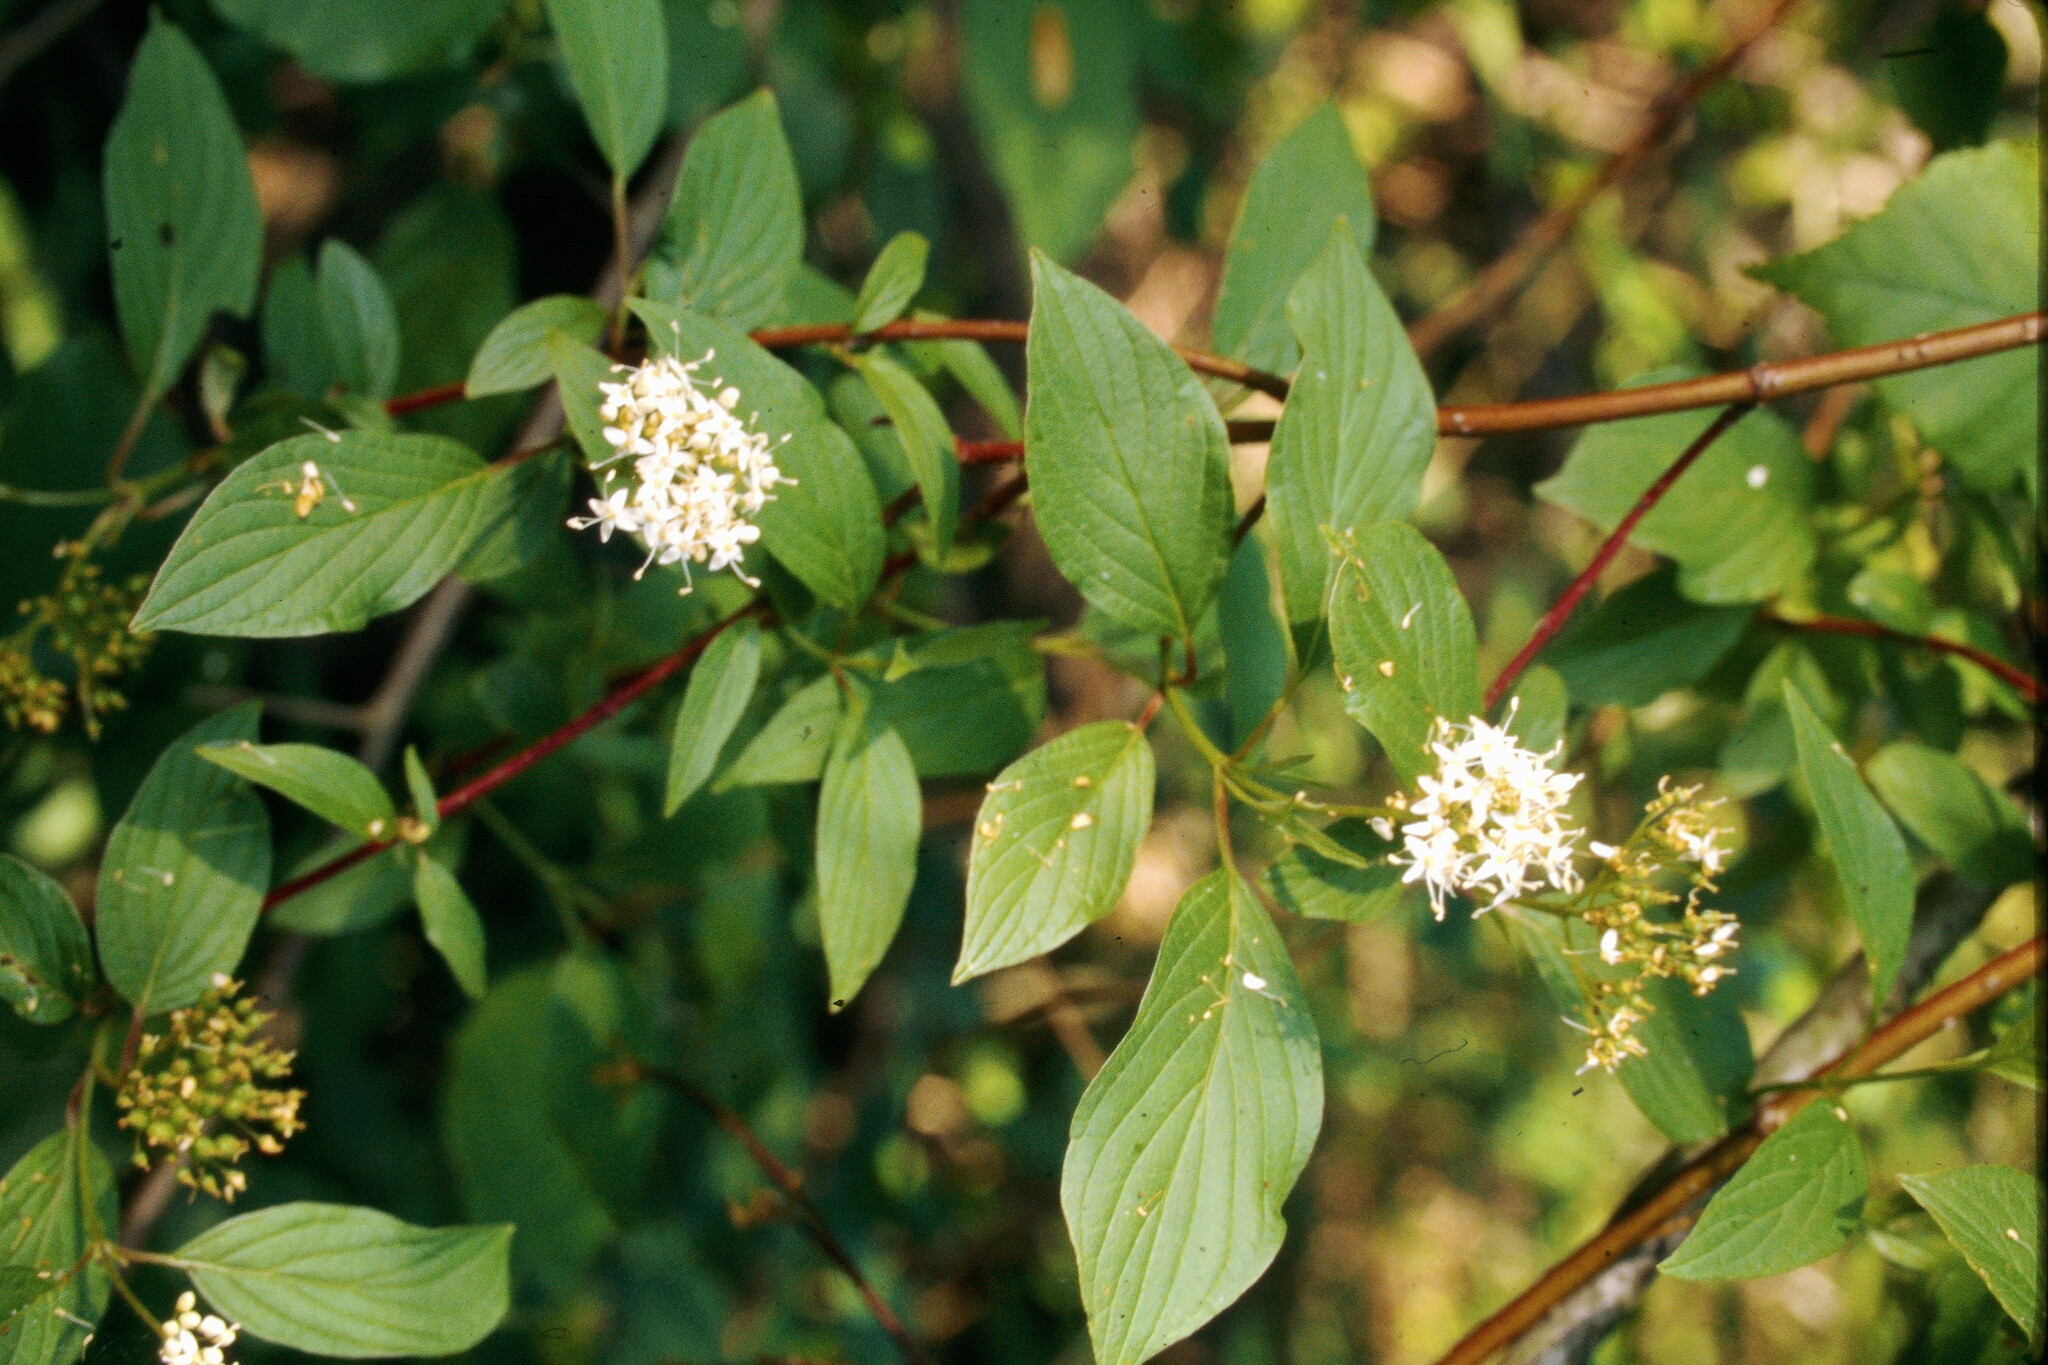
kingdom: Plantae
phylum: Tracheophyta
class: Magnoliopsida
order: Cornales
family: Cornaceae
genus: Cornus
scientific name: Cornus sericea
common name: Red-osier dogwood
